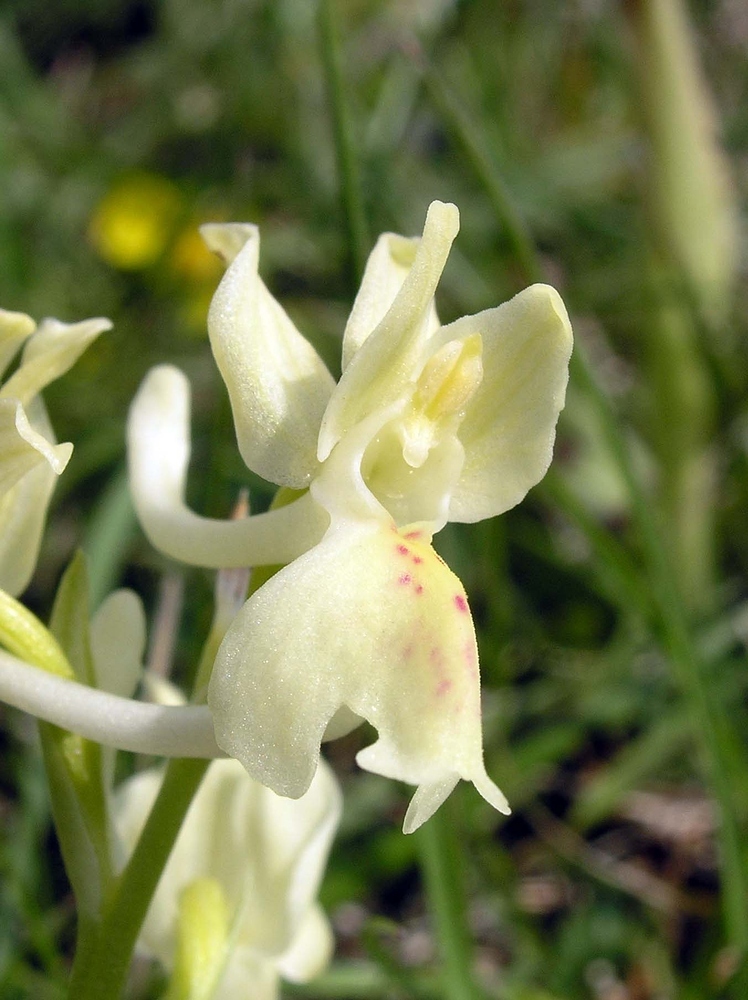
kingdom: Plantae
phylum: Tracheophyta
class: Liliopsida
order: Asparagales
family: Orchidaceae
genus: Orchis
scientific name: Orchis provincialis
